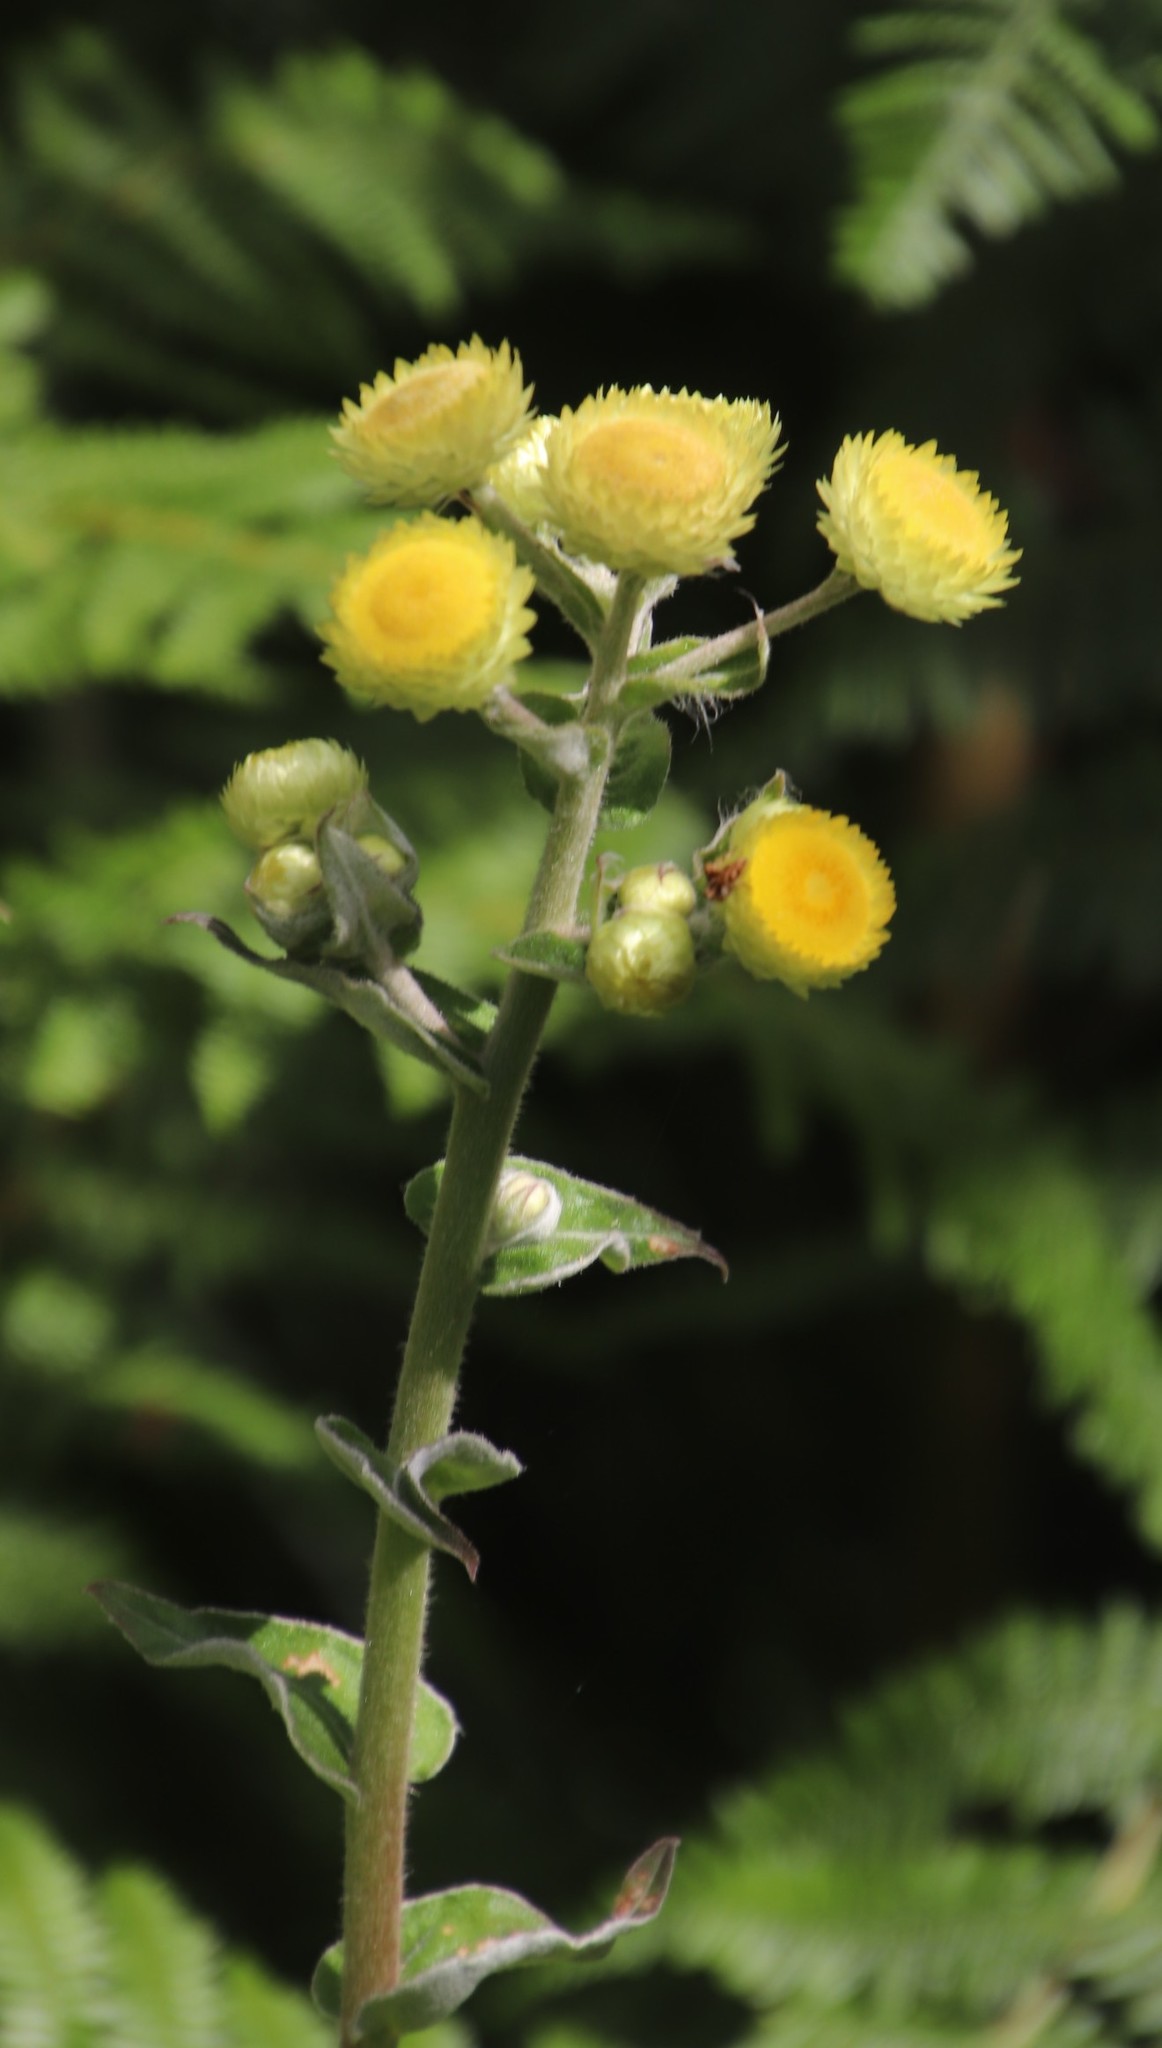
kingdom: Plantae
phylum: Tracheophyta
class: Magnoliopsida
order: Asterales
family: Asteraceae
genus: Helichrysum
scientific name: Helichrysum foetidum
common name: Stinking everlasting
